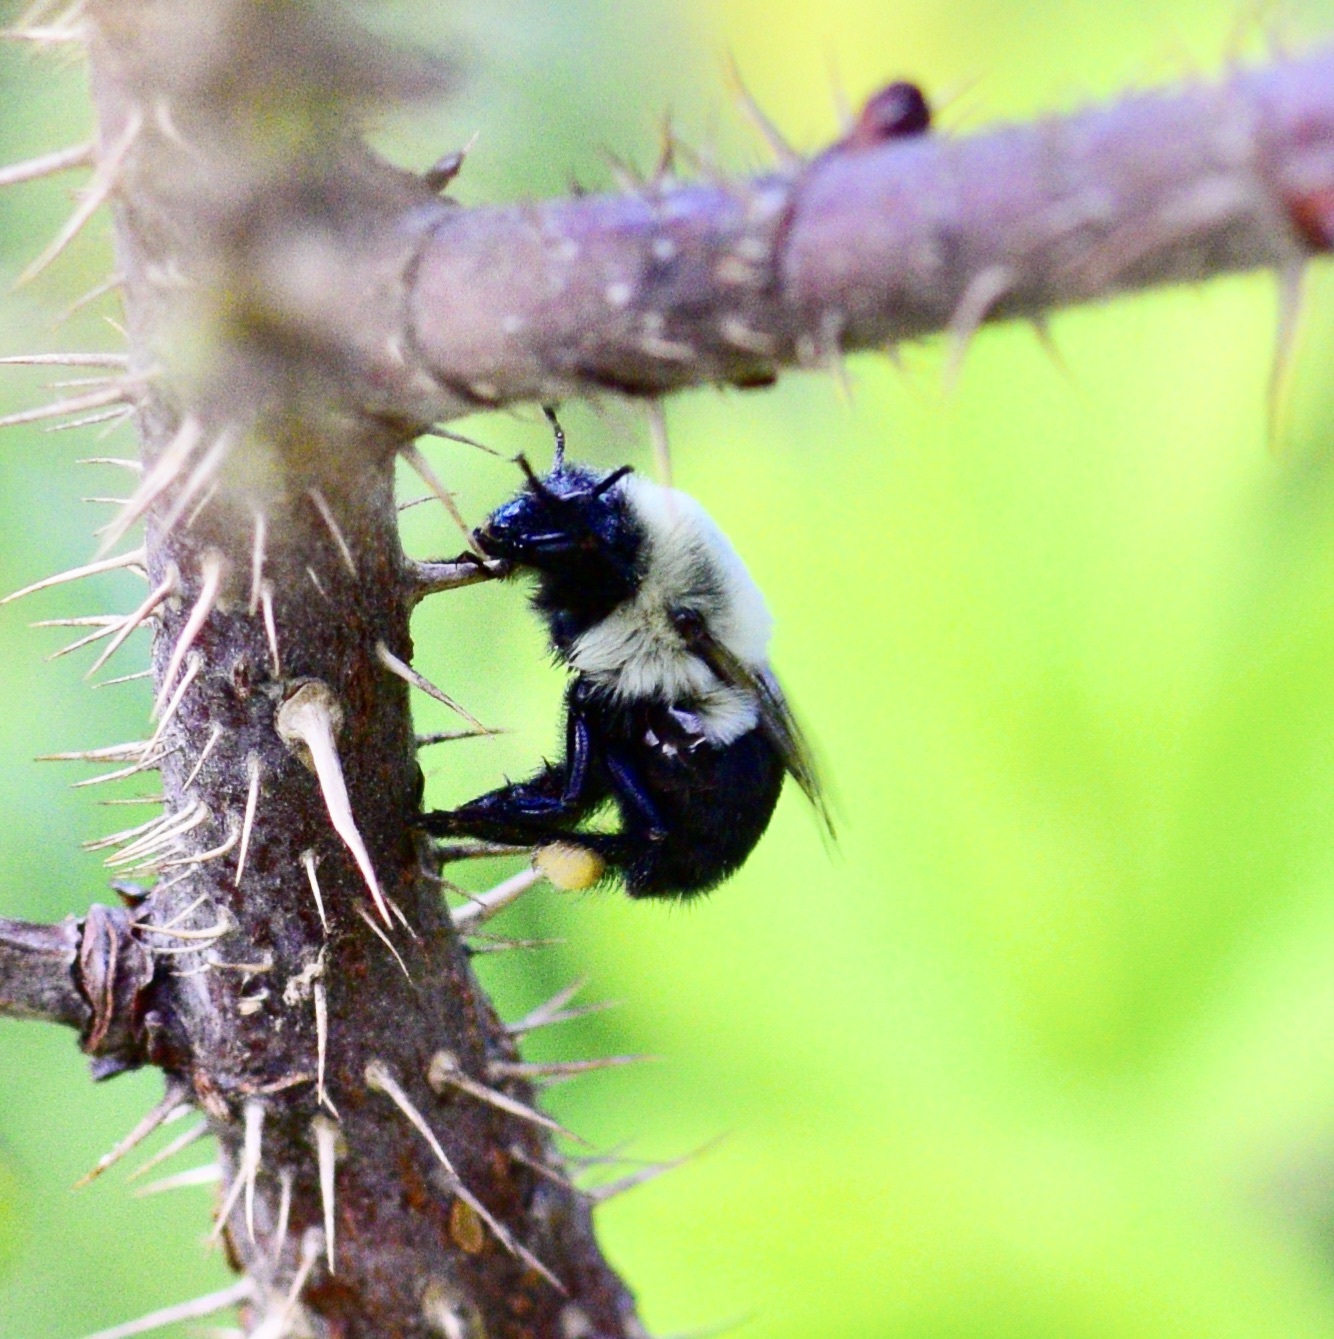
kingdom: Animalia
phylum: Arthropoda
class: Insecta
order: Hymenoptera
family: Apidae
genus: Bombus
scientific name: Bombus impatiens
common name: Common eastern bumble bee
